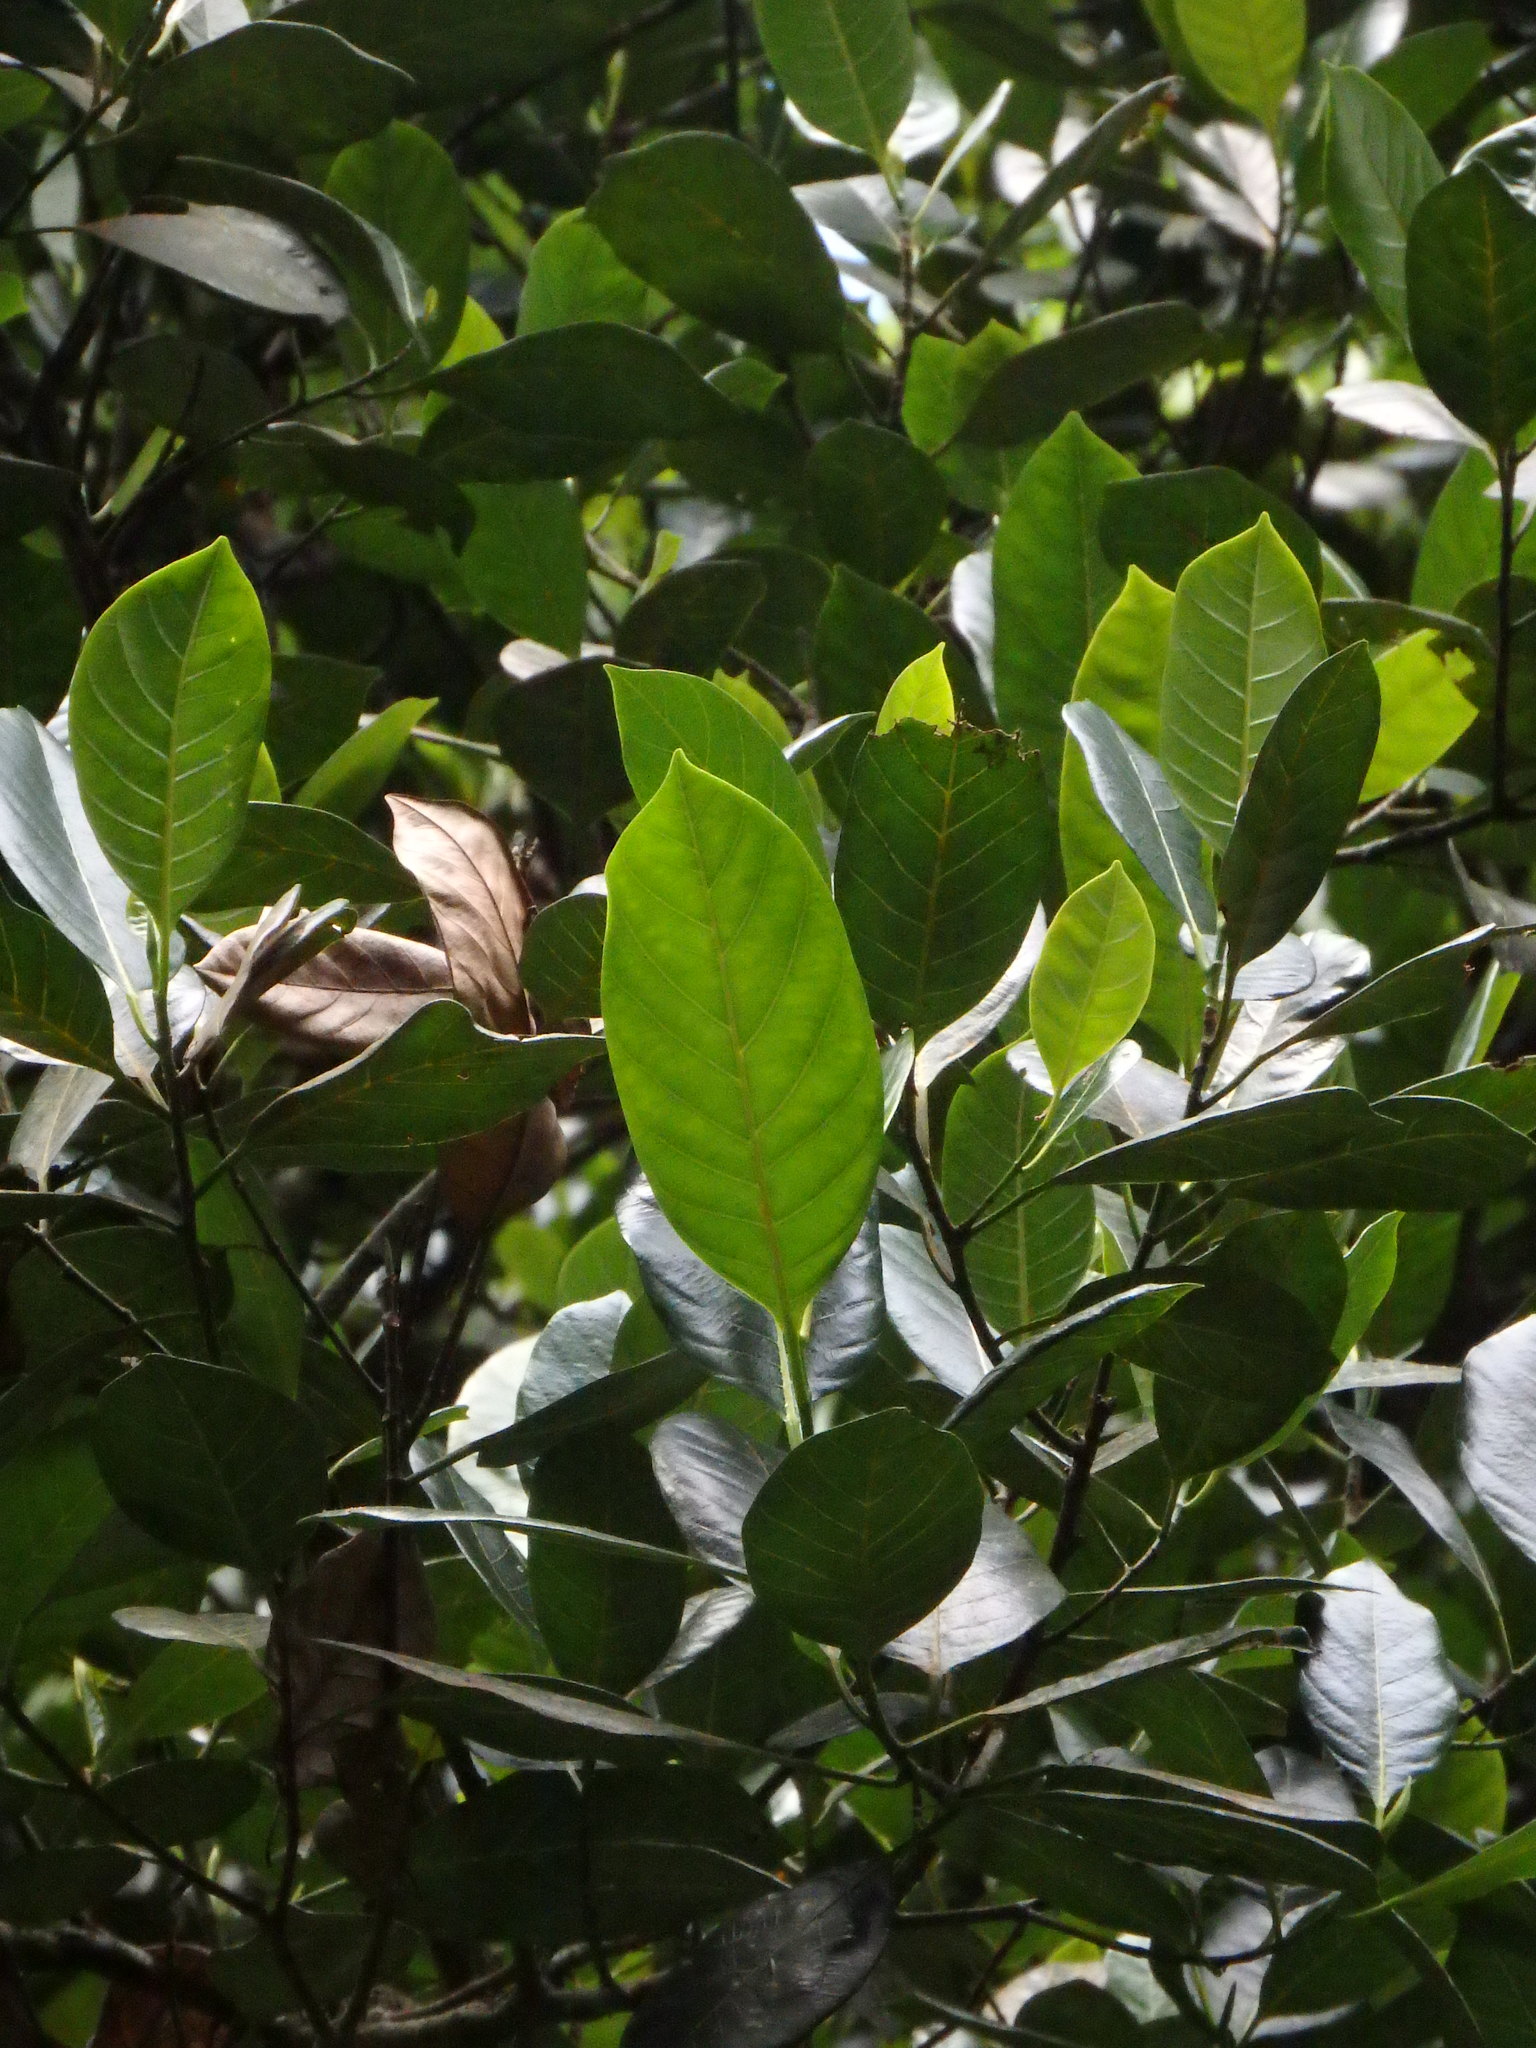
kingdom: Plantae
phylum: Tracheophyta
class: Magnoliopsida
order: Rosales
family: Moraceae
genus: Artocarpus
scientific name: Artocarpus integer
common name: Chempedak
